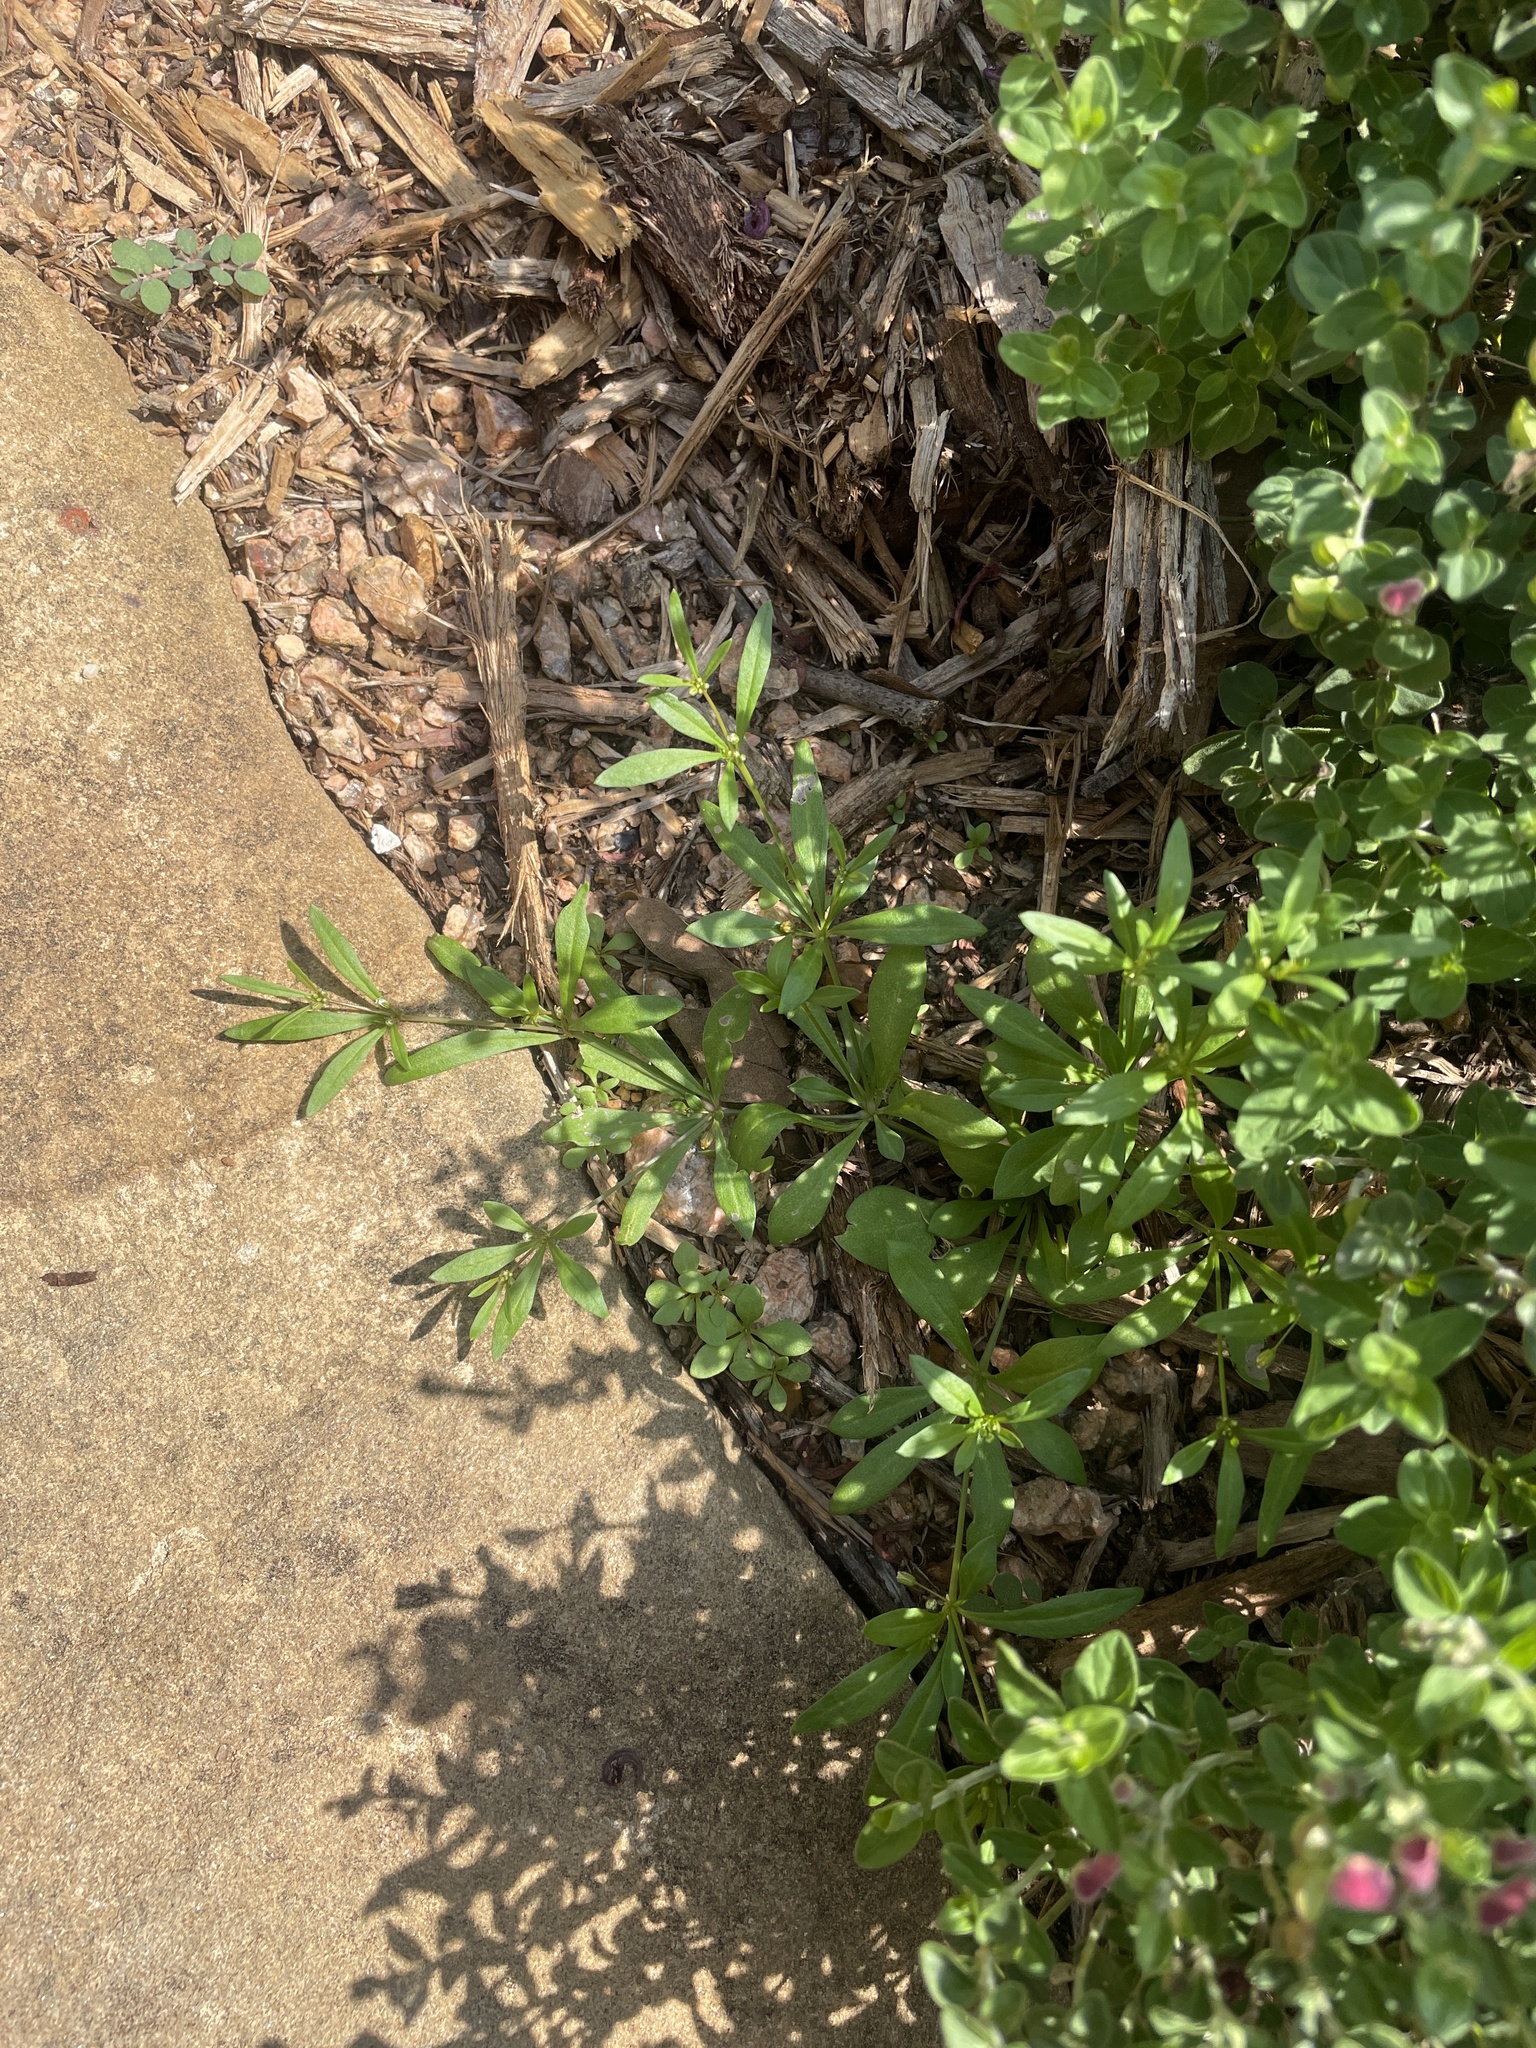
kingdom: Plantae
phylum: Tracheophyta
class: Magnoliopsida
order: Caryophyllales
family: Molluginaceae
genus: Mollugo
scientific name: Mollugo verticillata
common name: Green carpetweed
